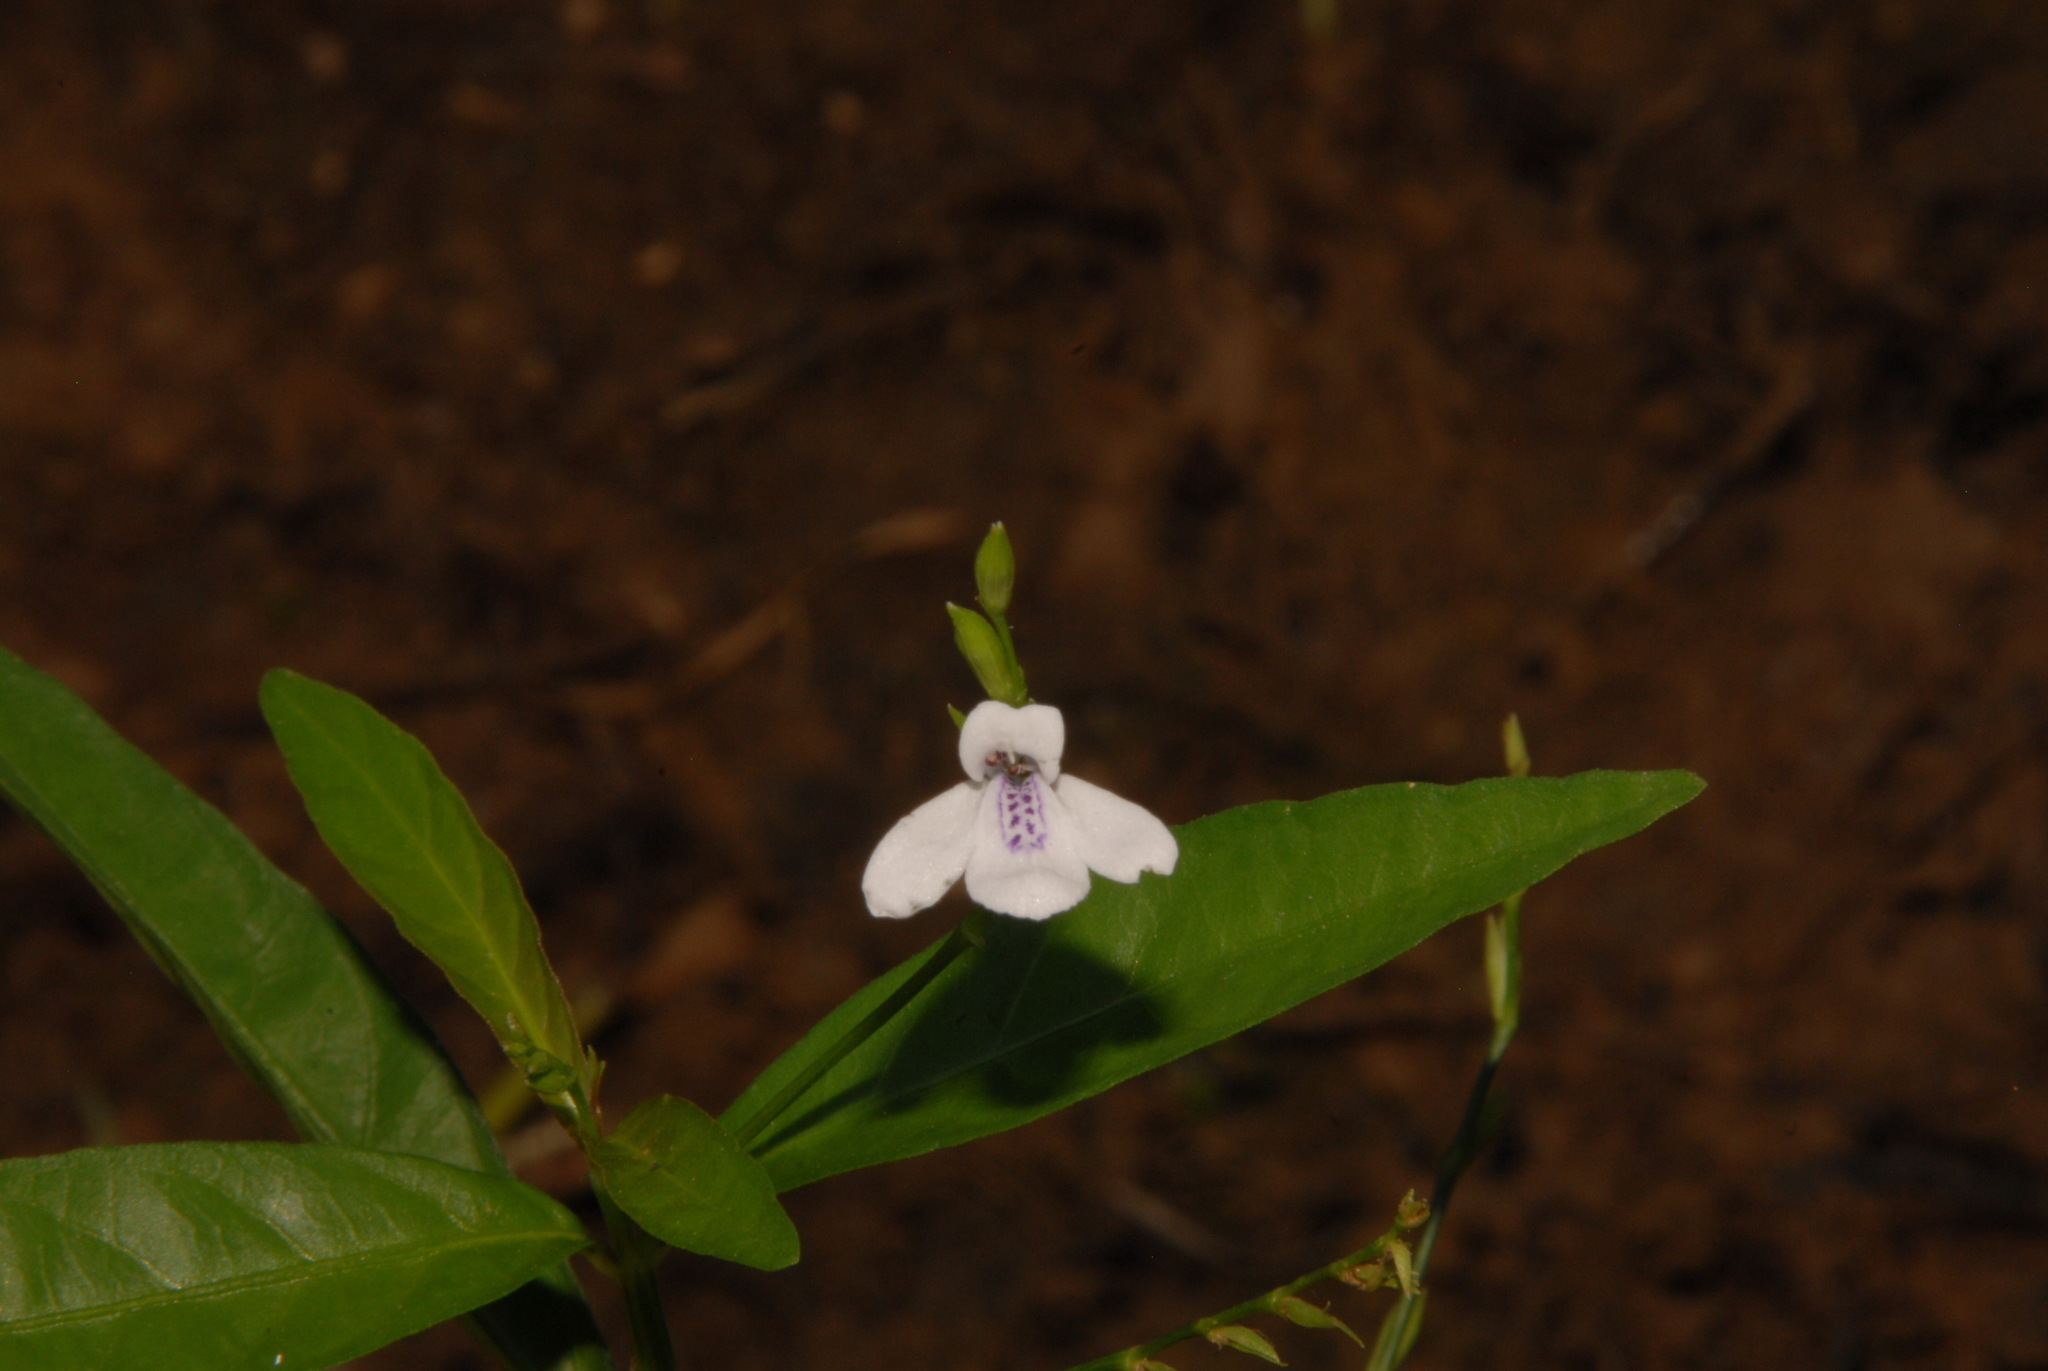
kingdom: Plantae
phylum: Tracheophyta
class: Magnoliopsida
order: Lamiales
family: Acanthaceae
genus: Justicia
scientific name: Justicia lanceolata
